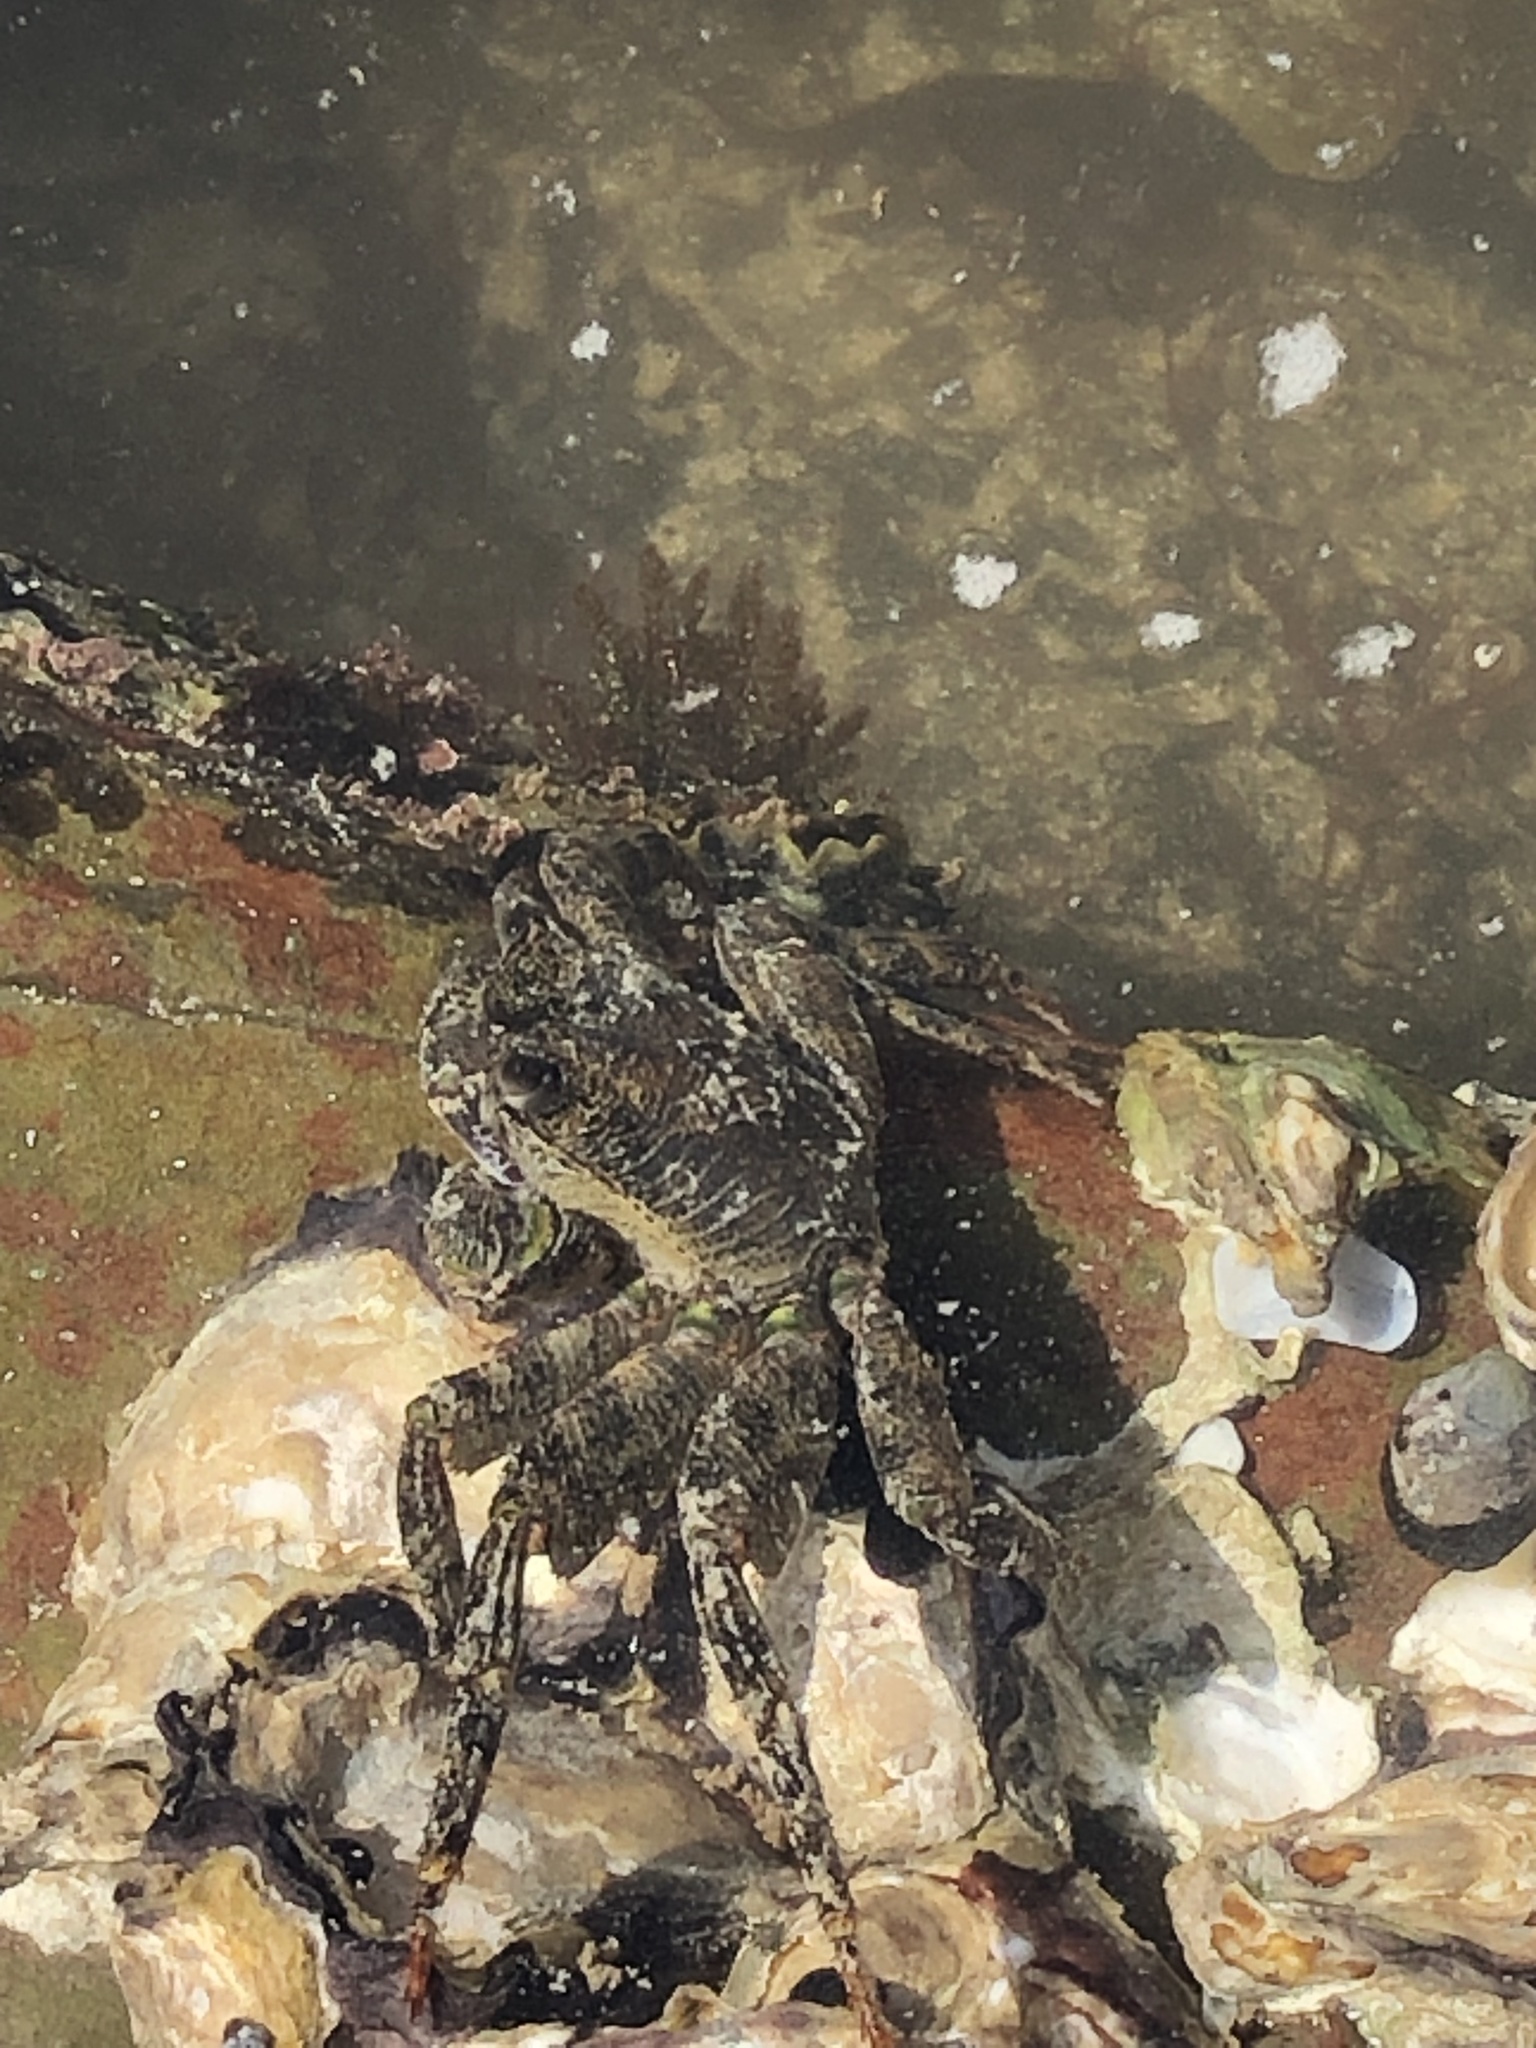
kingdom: Animalia
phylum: Arthropoda
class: Malacostraca
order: Decapoda
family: Grapsidae
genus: Leptograpsus
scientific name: Leptograpsus variegatus
